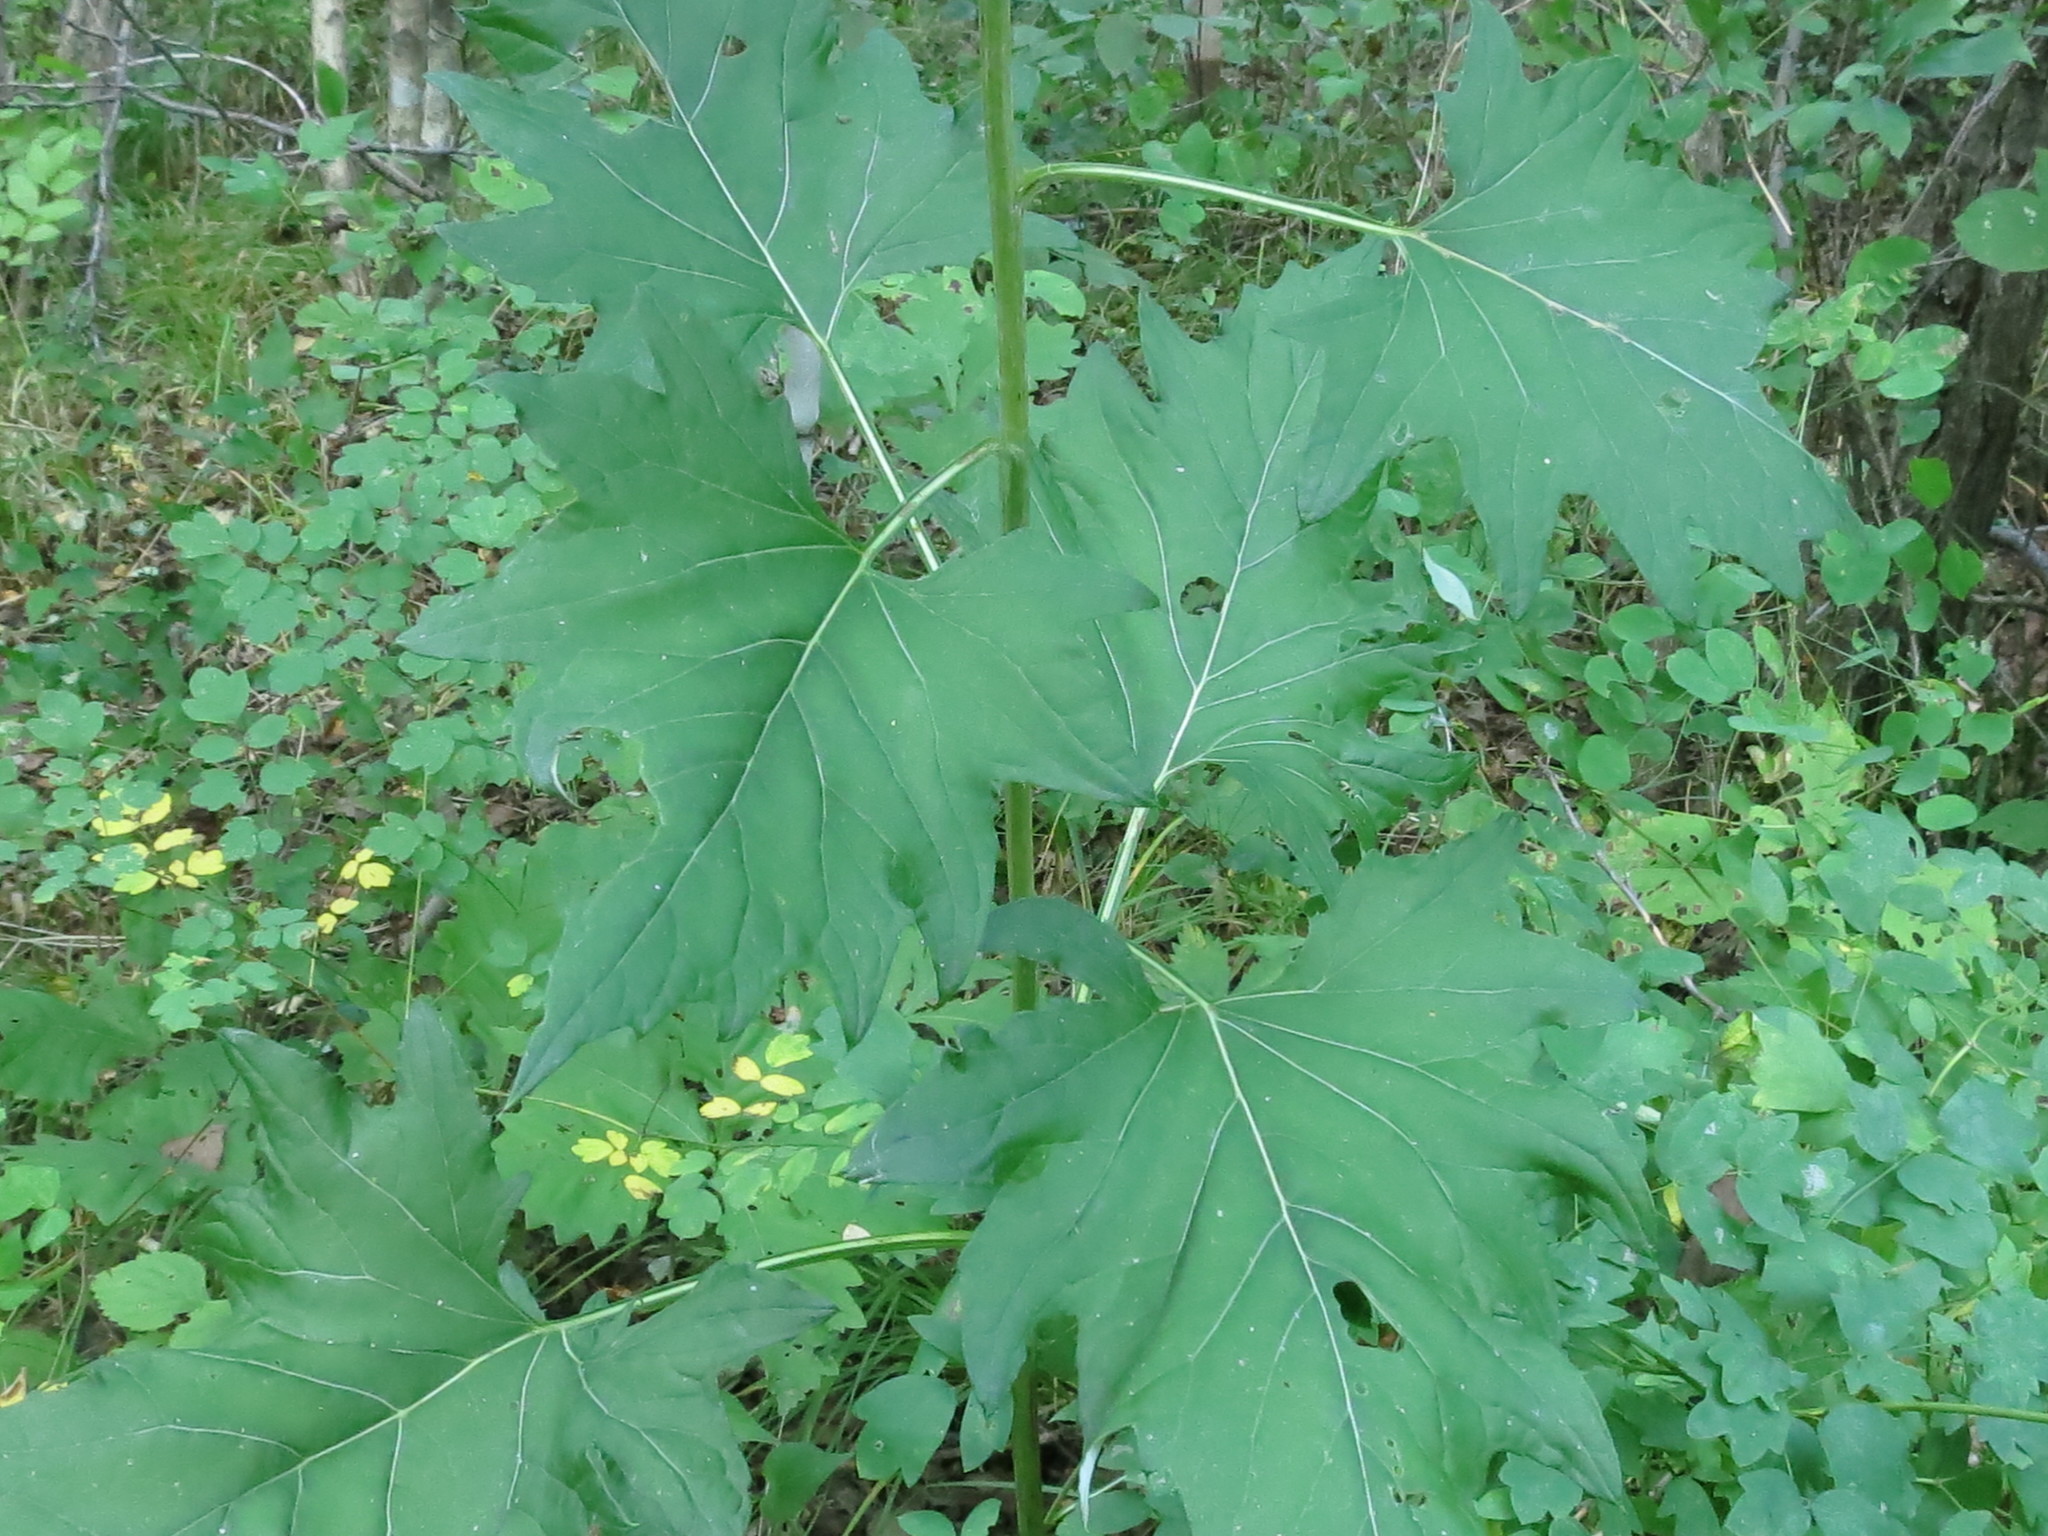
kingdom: Plantae
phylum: Tracheophyta
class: Magnoliopsida
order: Asterales
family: Asteraceae
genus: Synurus
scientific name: Synurus deltoides
